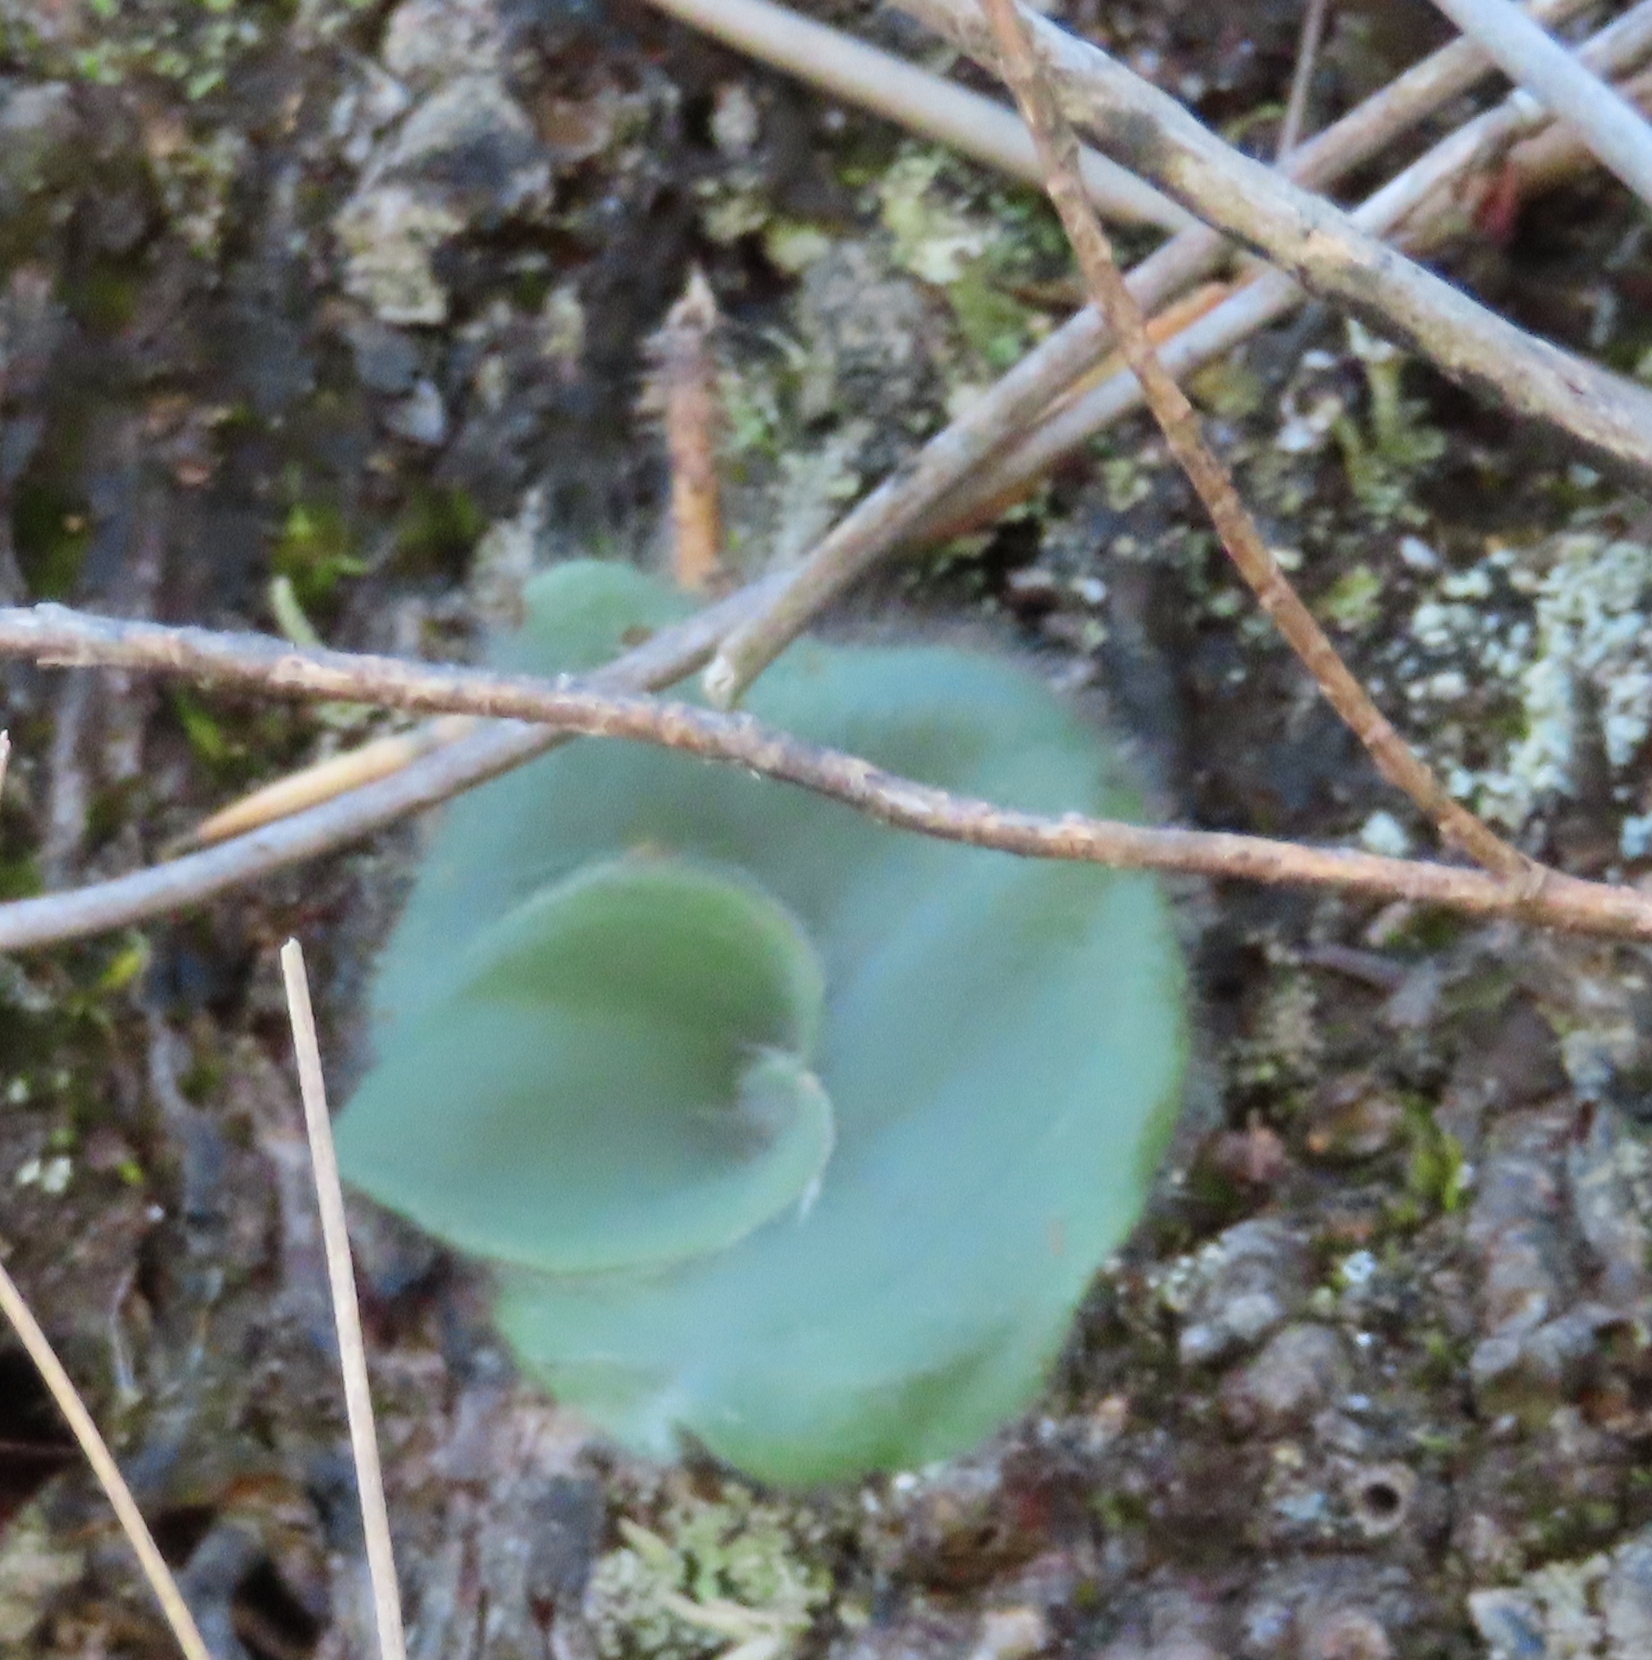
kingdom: Plantae
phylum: Tracheophyta
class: Liliopsida
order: Asparagales
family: Orchidaceae
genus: Holothrix
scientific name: Holothrix villosa
